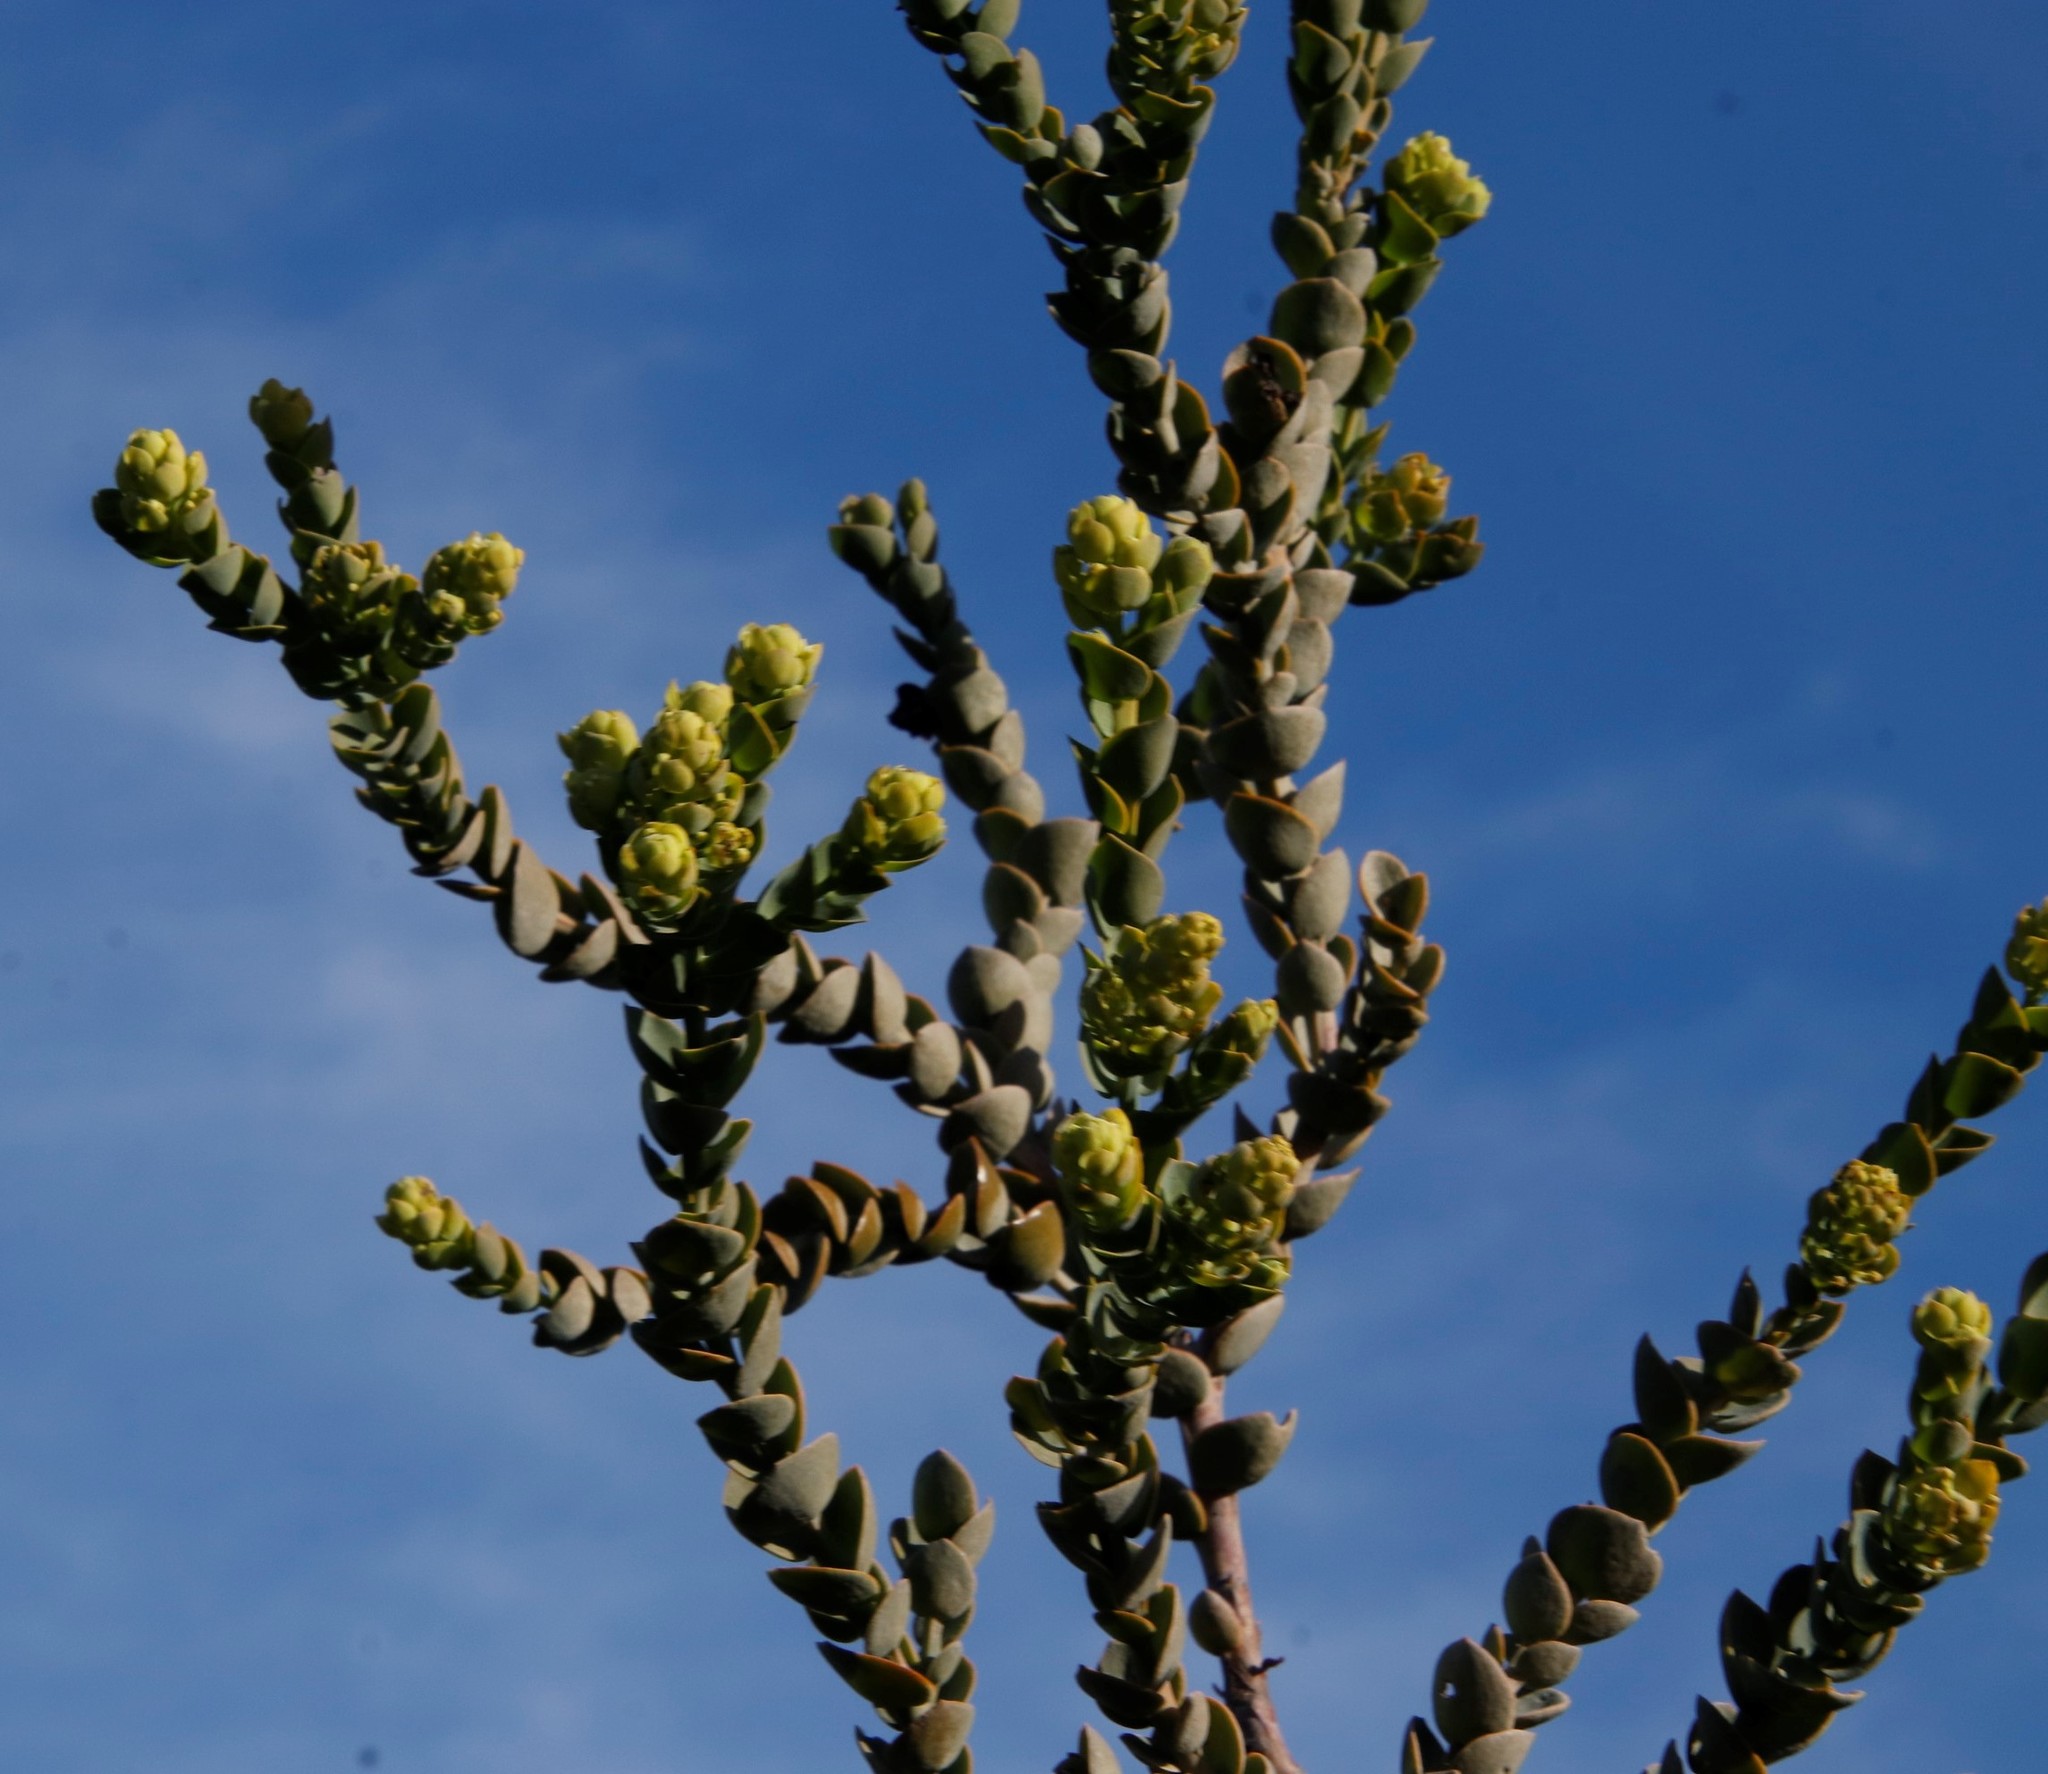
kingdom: Plantae
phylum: Tracheophyta
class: Magnoliopsida
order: Santalales
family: Thesiaceae
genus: Thesium
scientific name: Thesium euphorbioides
